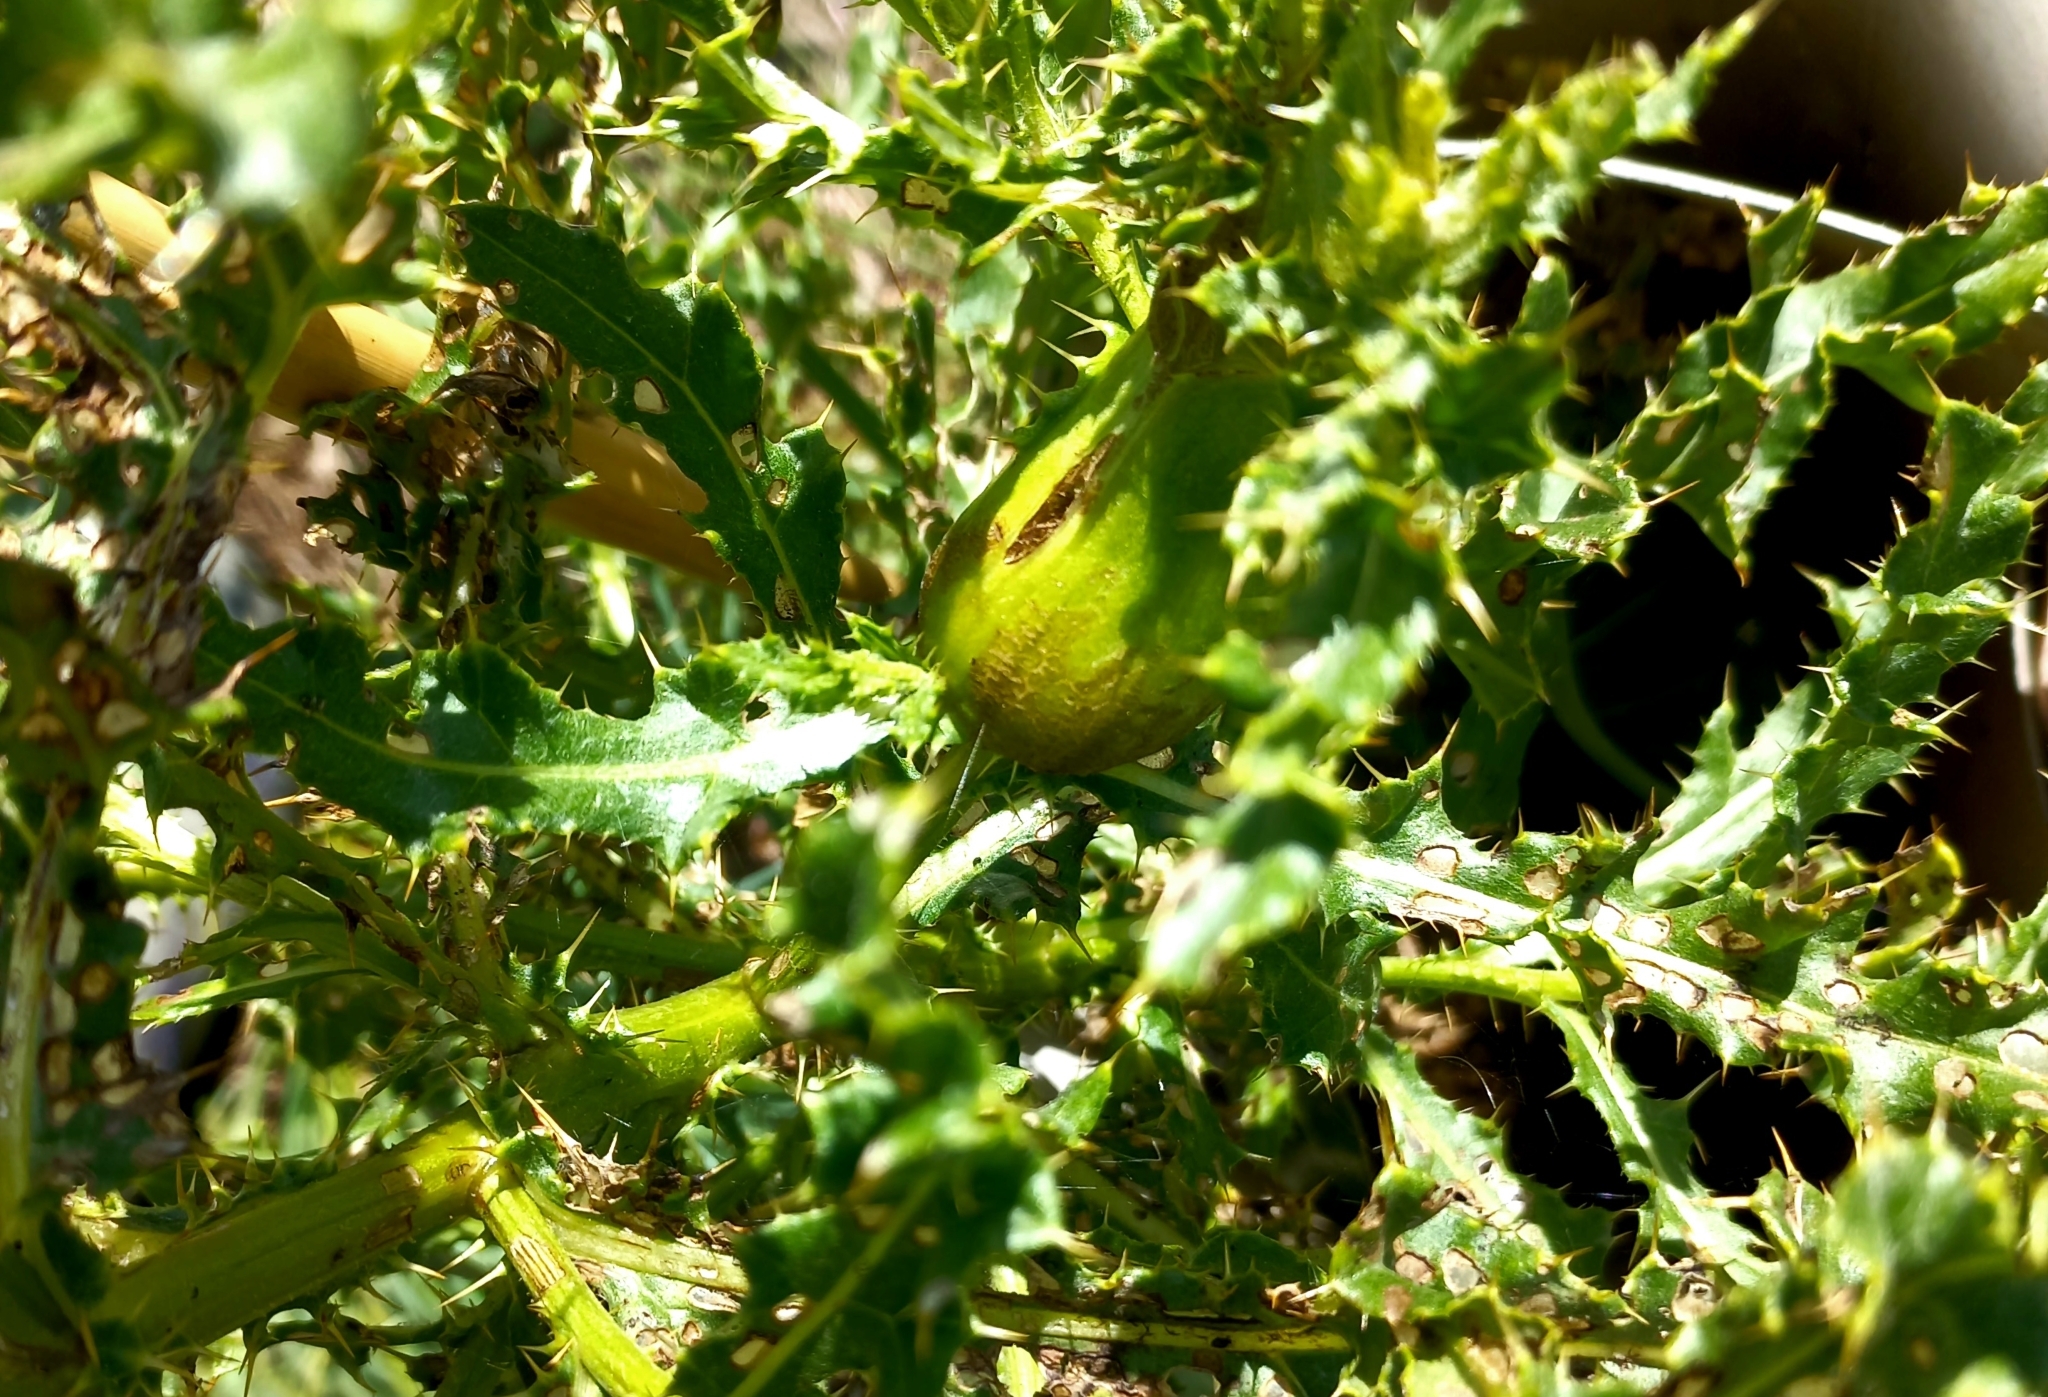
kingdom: Animalia
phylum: Arthropoda
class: Insecta
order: Diptera
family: Tephritidae
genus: Urophora
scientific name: Urophora cardui
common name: Fruit fly
